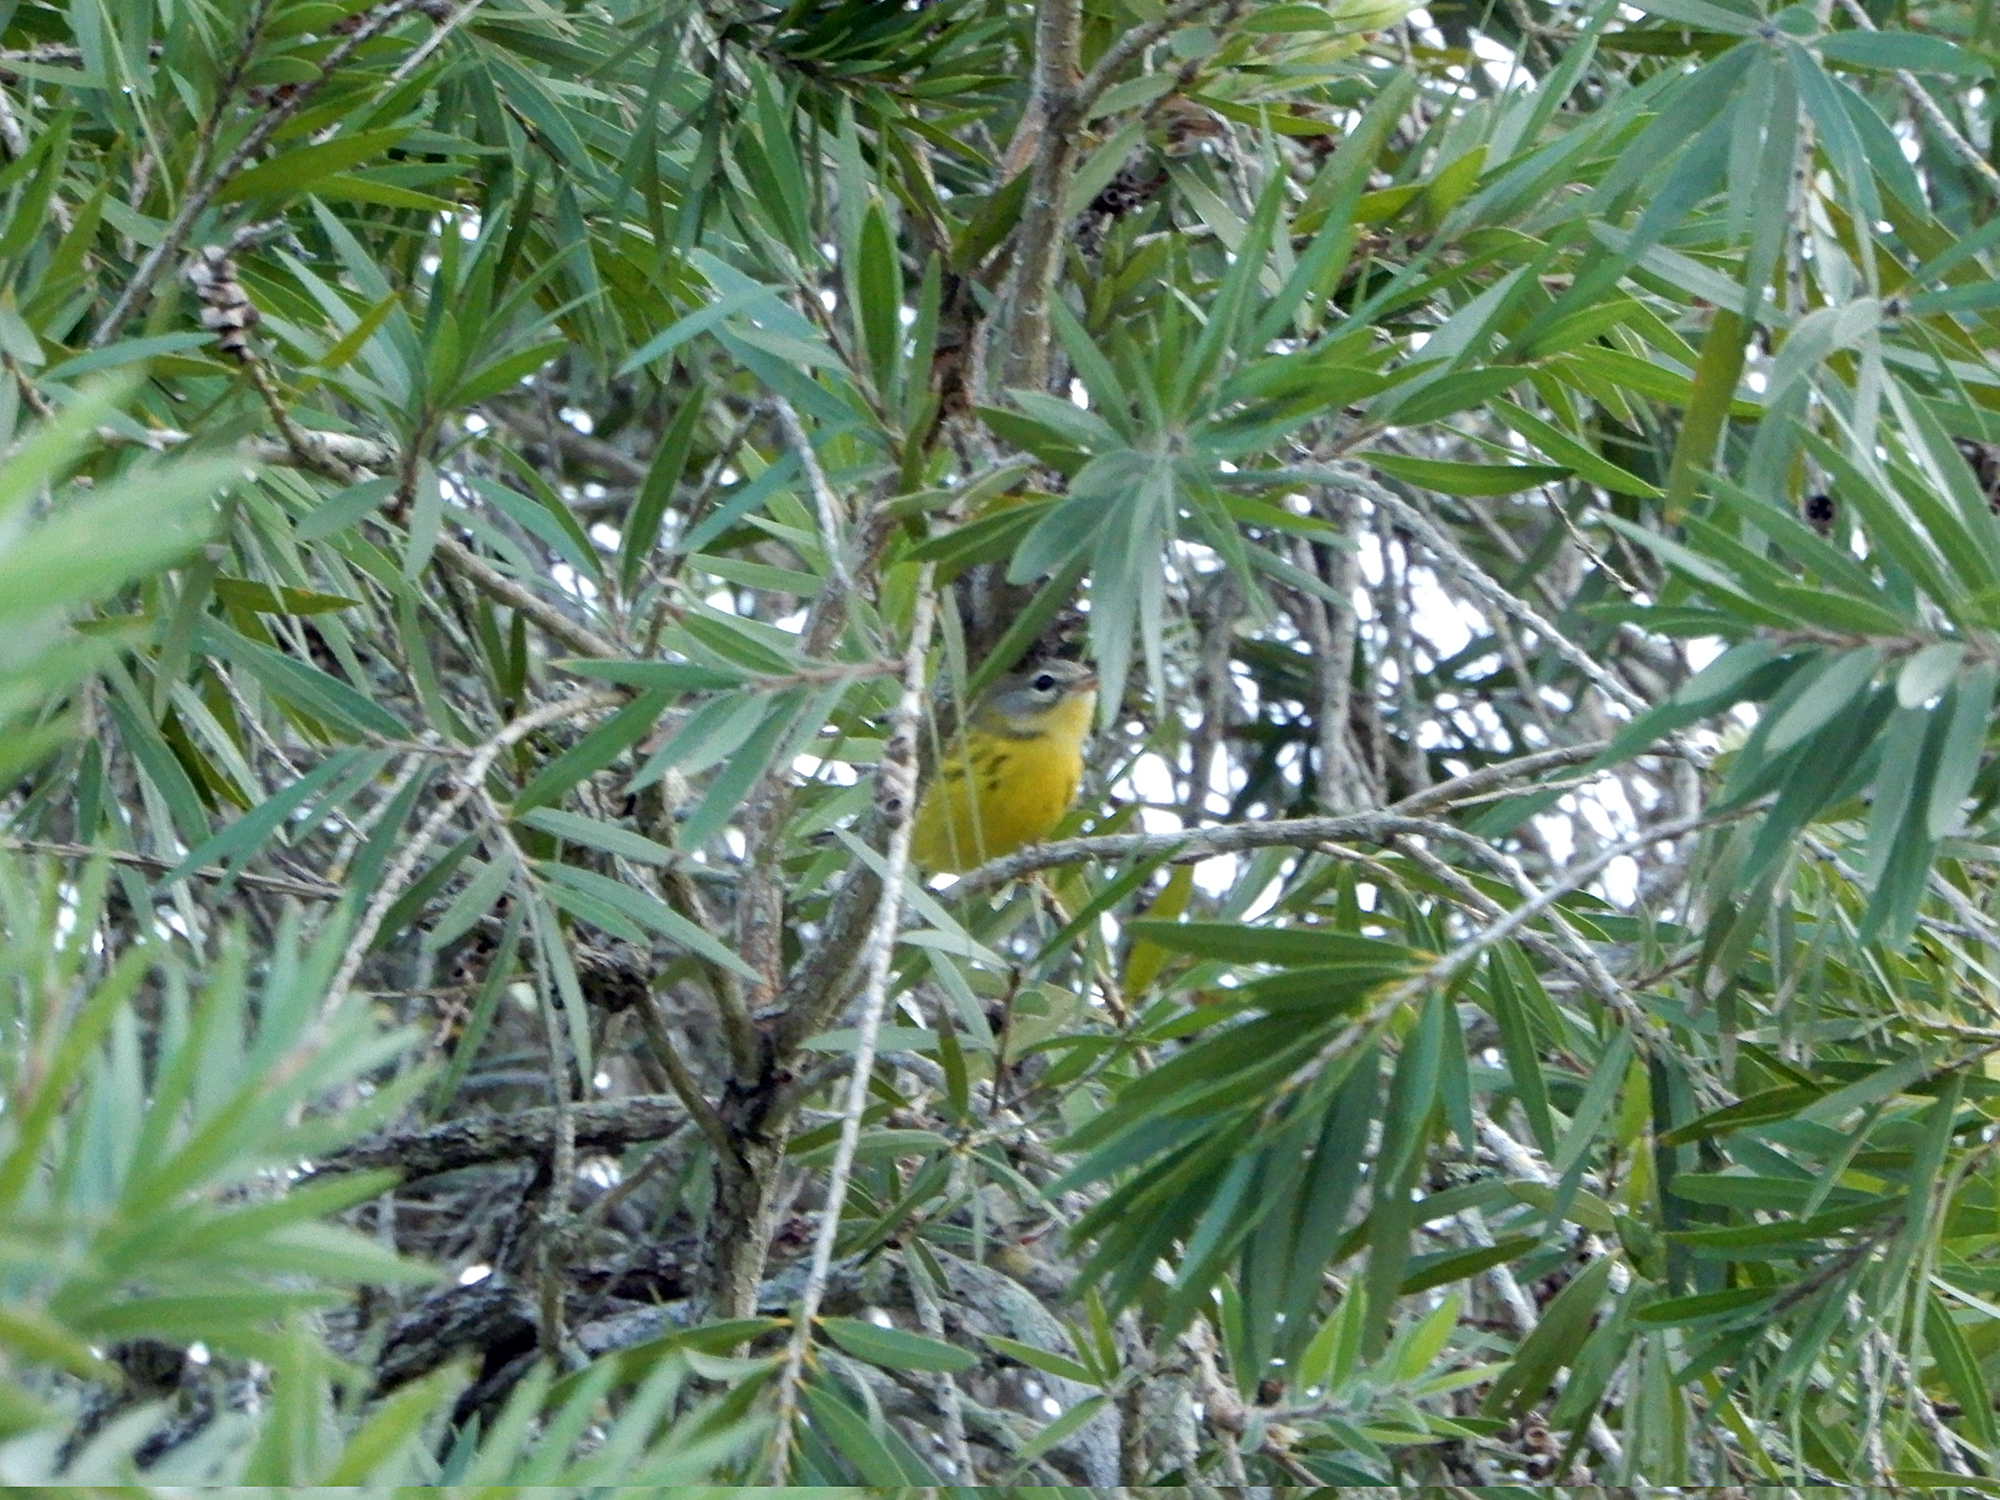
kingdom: Animalia
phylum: Chordata
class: Aves
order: Passeriformes
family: Parulidae
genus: Setophaga
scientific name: Setophaga discolor
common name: Prairie warbler
